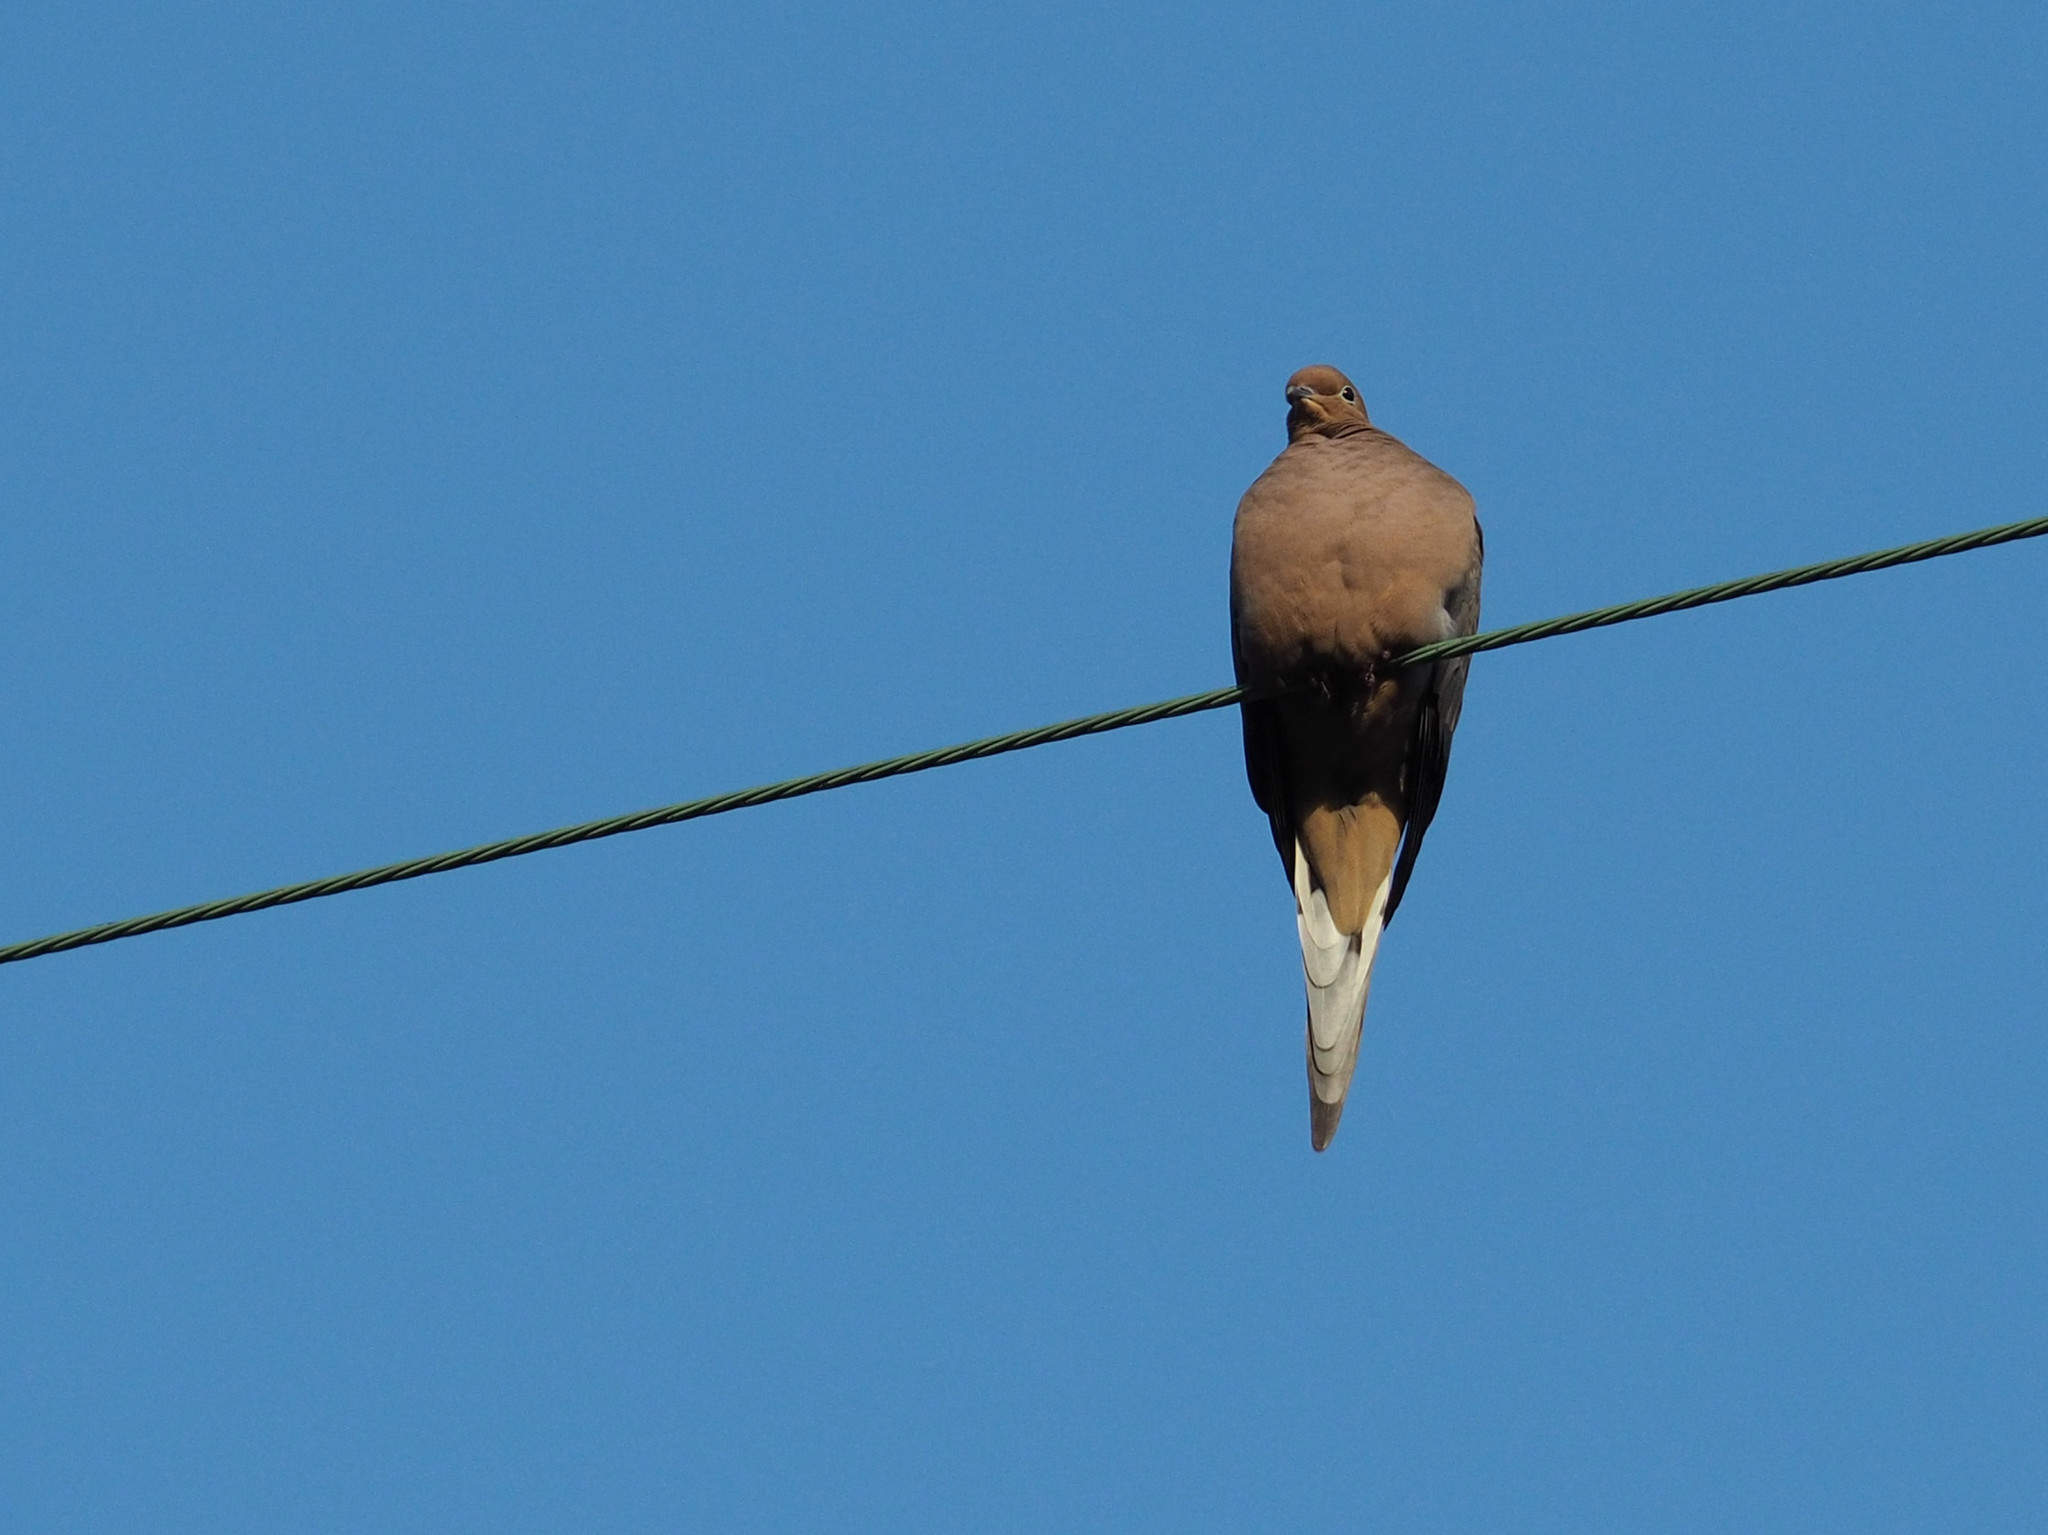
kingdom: Animalia
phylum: Chordata
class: Aves
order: Columbiformes
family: Columbidae
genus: Zenaida
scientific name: Zenaida macroura
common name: Mourning dove
